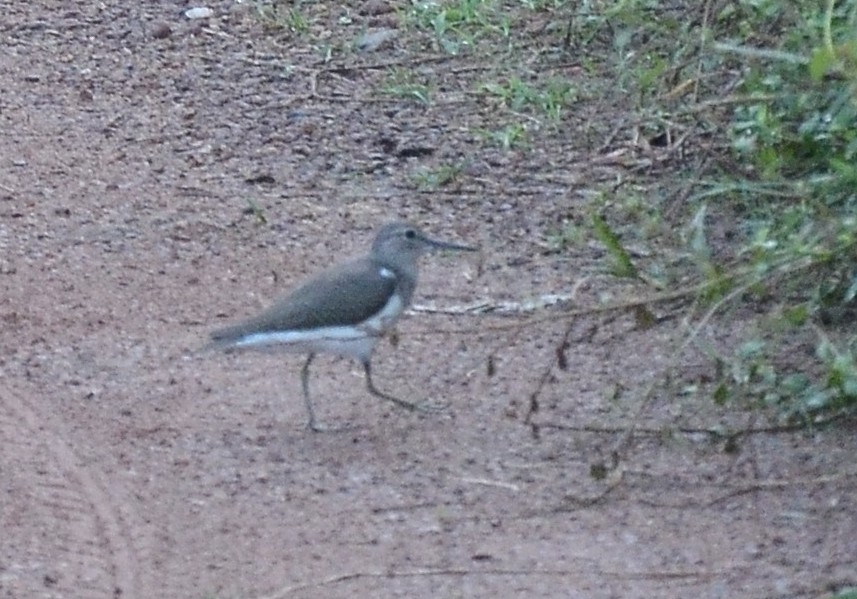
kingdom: Animalia
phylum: Chordata
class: Aves
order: Charadriiformes
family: Scolopacidae
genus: Actitis
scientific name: Actitis hypoleucos
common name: Common sandpiper
